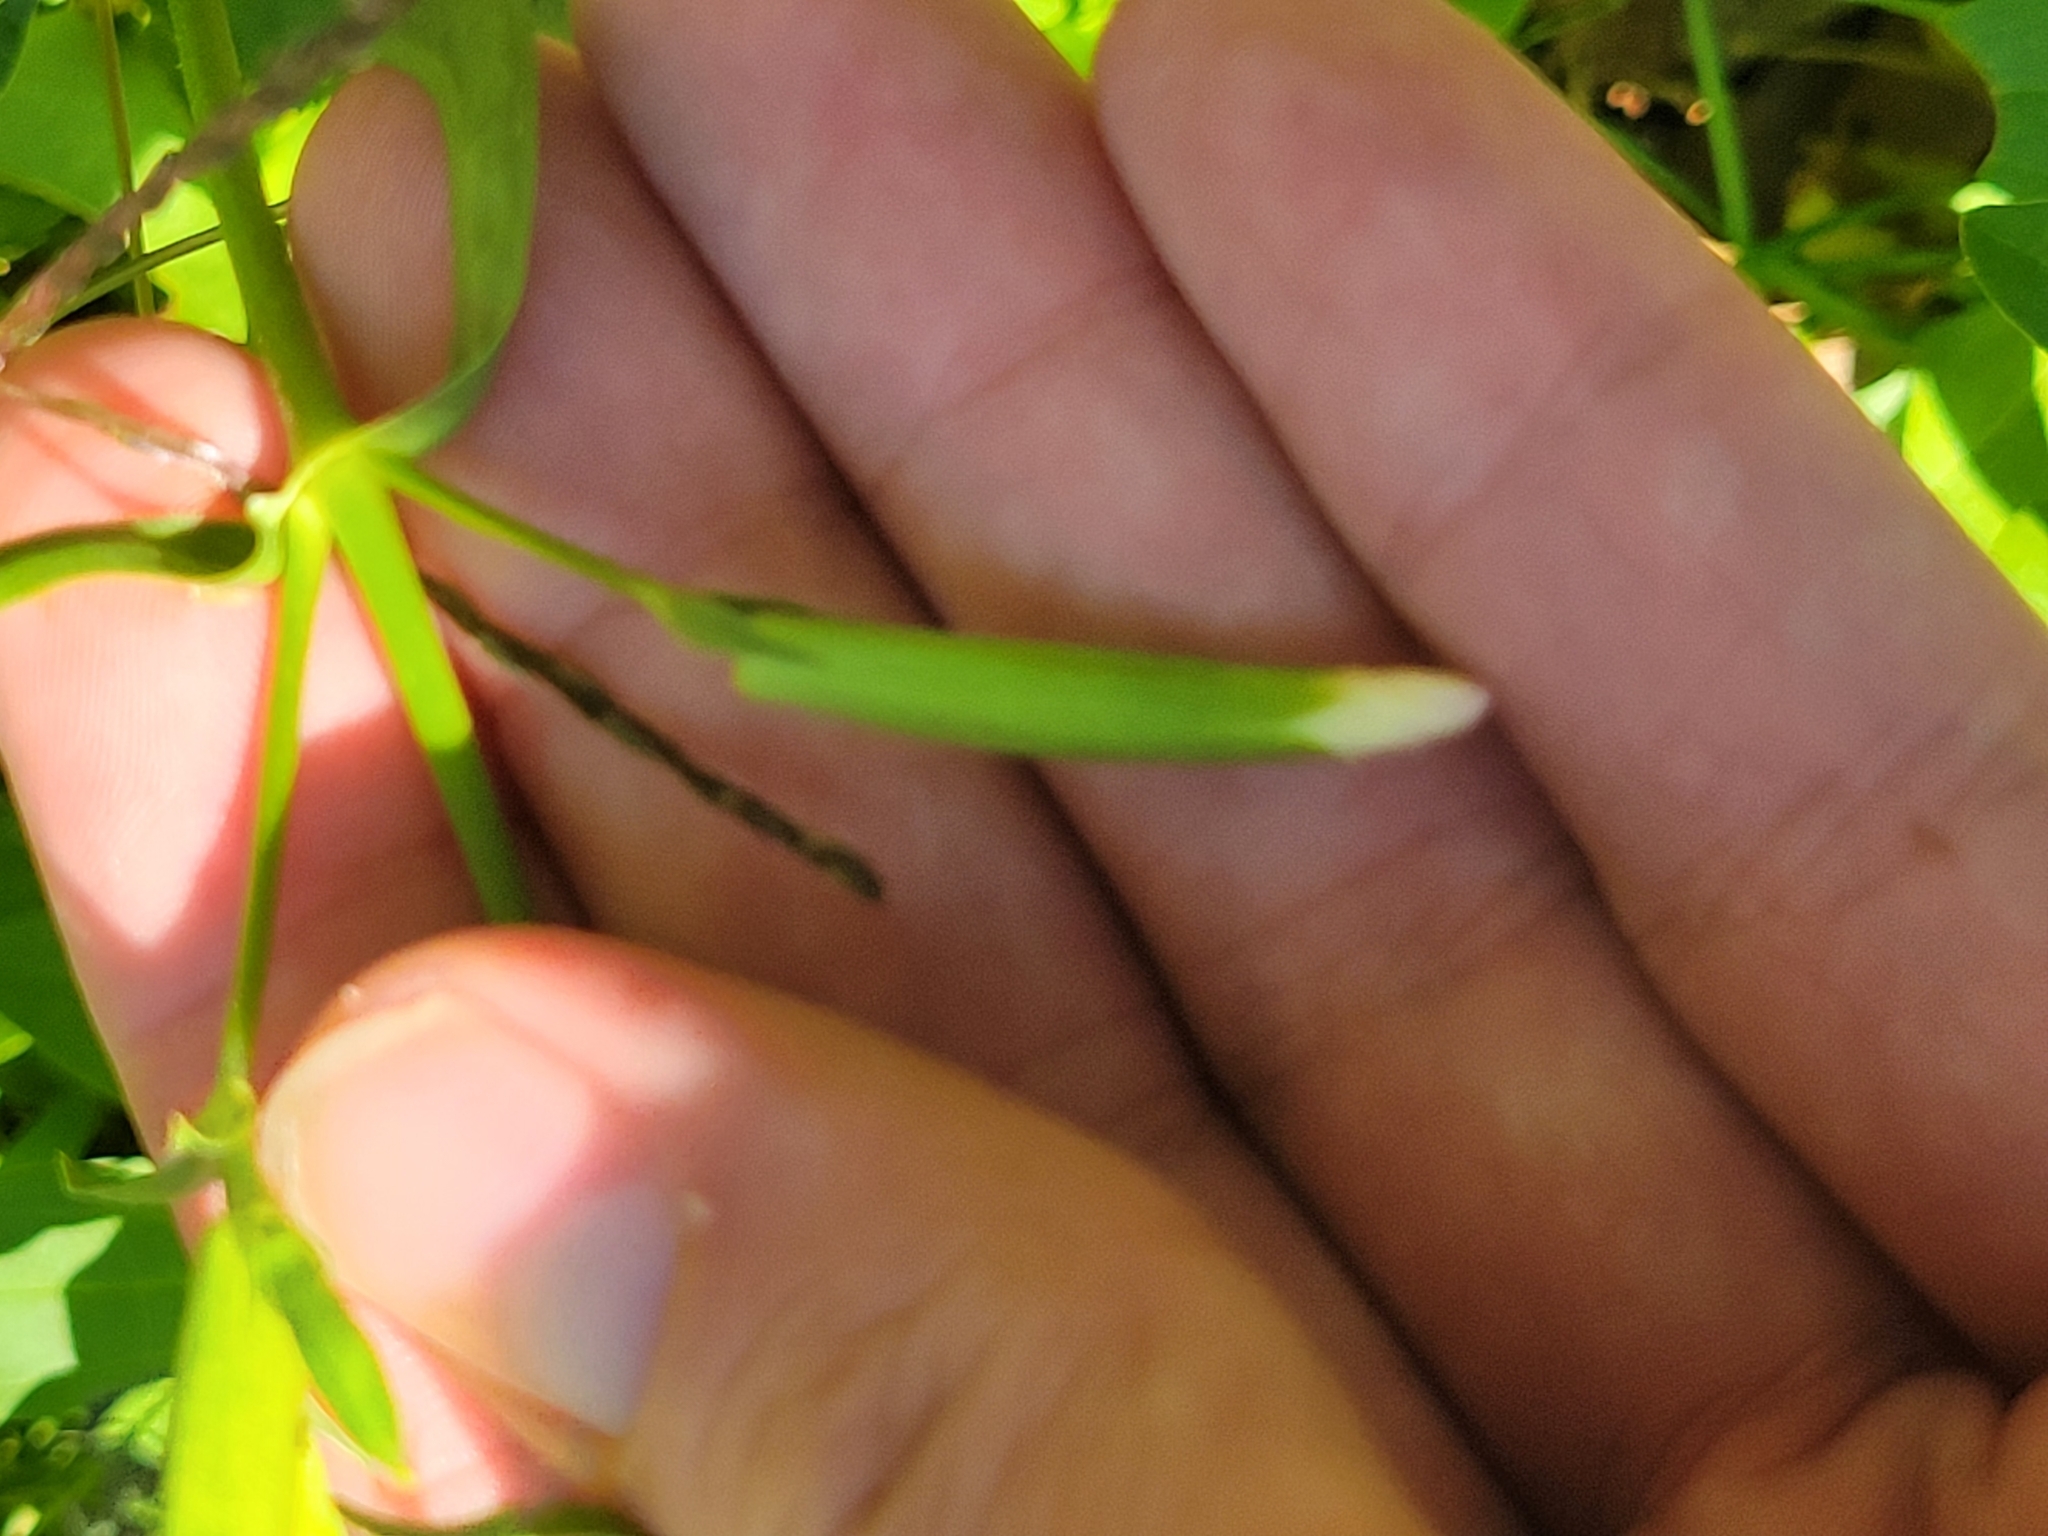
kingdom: Plantae
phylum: Tracheophyta
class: Magnoliopsida
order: Caryophyllales
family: Caryophyllaceae
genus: Saponaria
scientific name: Saponaria officinalis
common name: Soapwort
